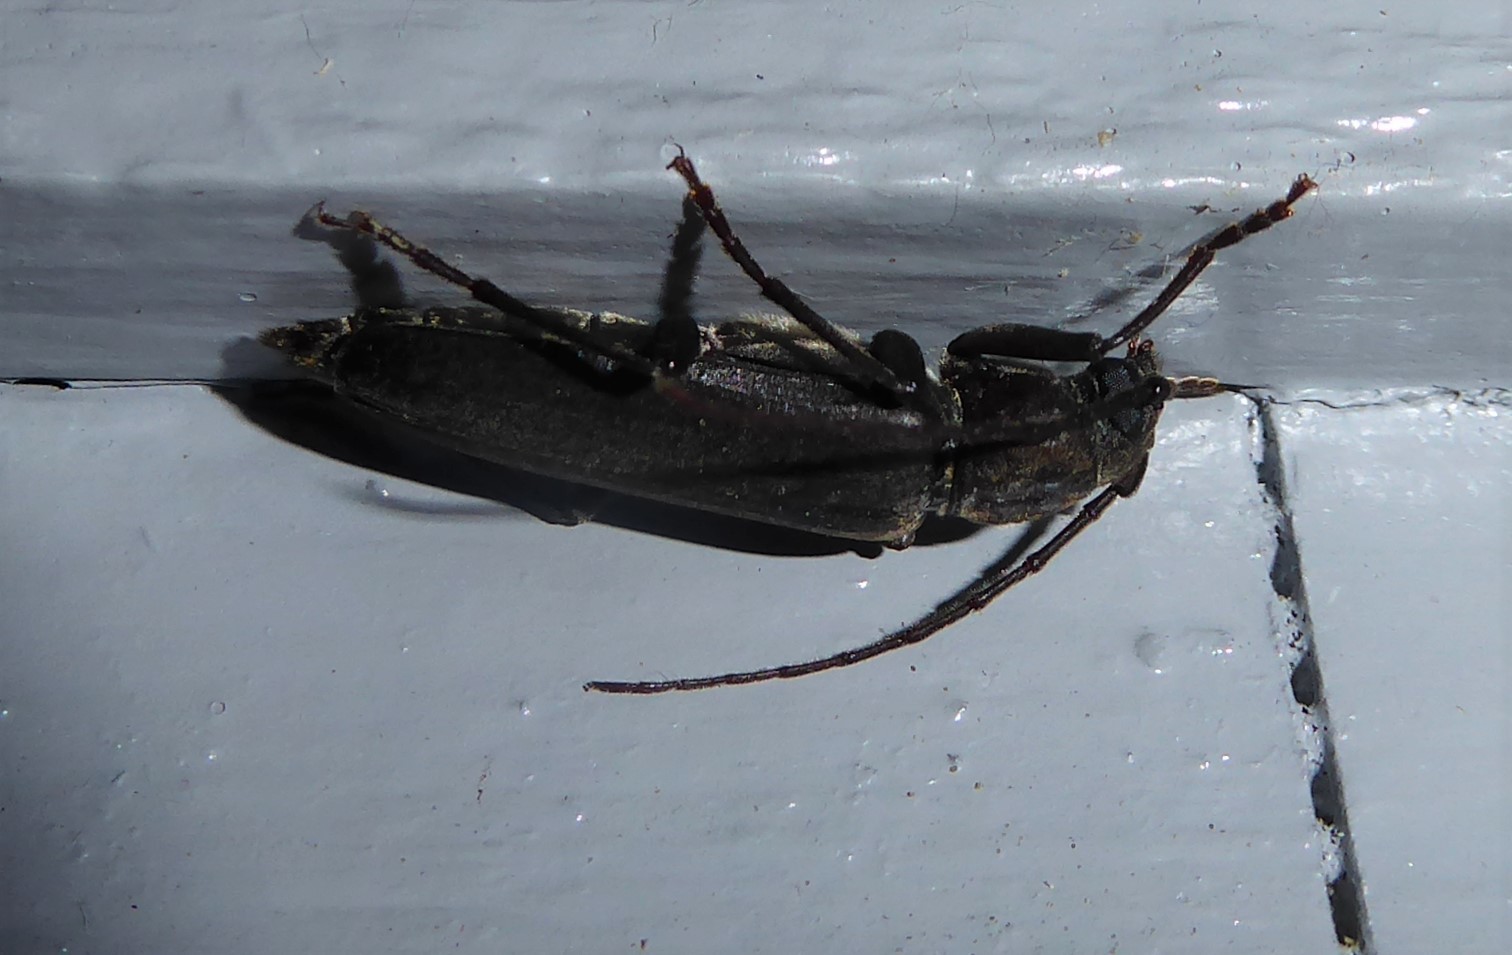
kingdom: Animalia
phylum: Arthropoda
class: Insecta
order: Coleoptera
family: Cerambycidae
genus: Arhopalus
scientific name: Arhopalus ferus
